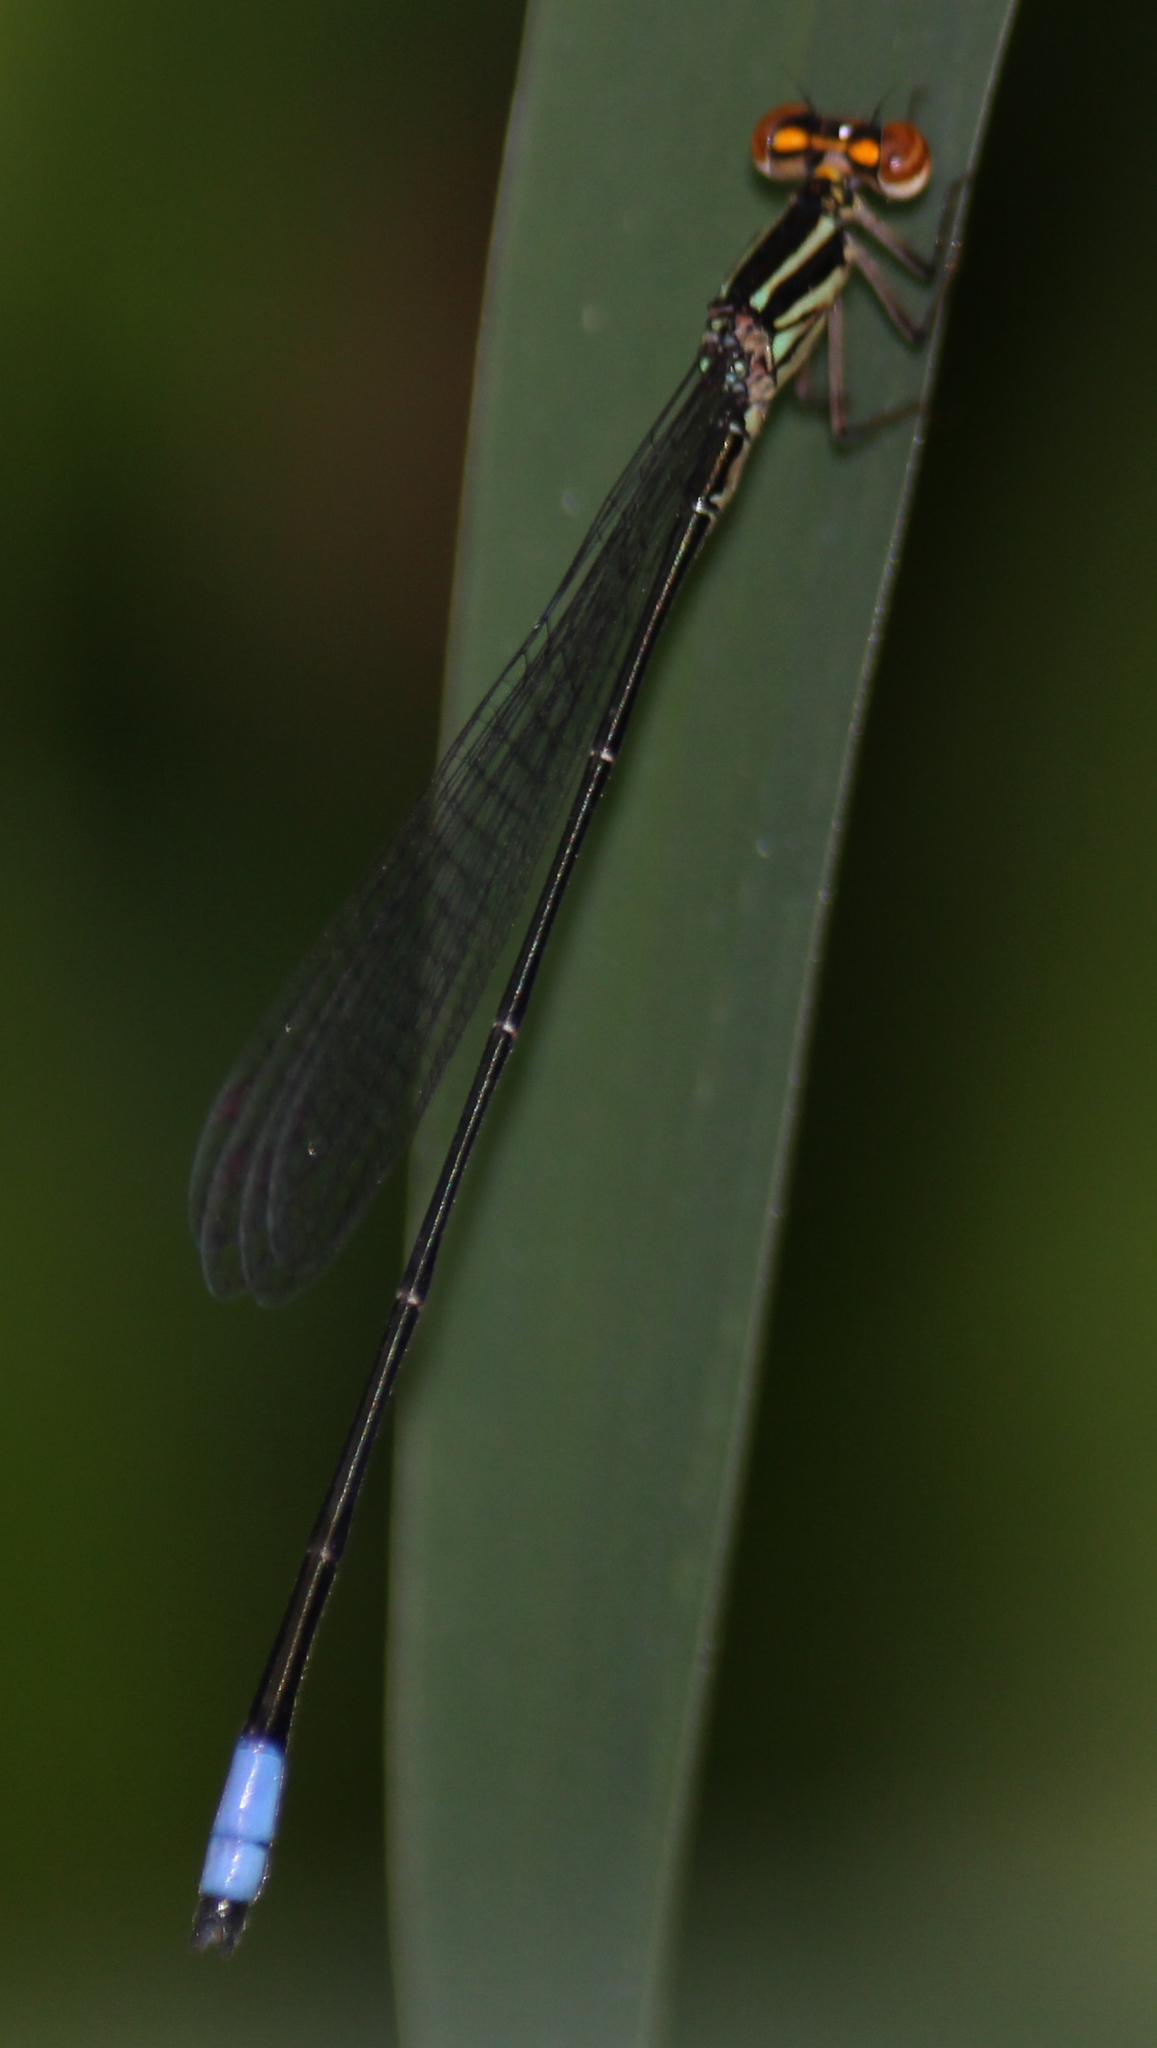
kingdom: Animalia
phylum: Arthropoda
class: Insecta
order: Odonata
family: Coenagrionidae
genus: Pseudagrion
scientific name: Pseudagrion hageni
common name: Painted sprite
